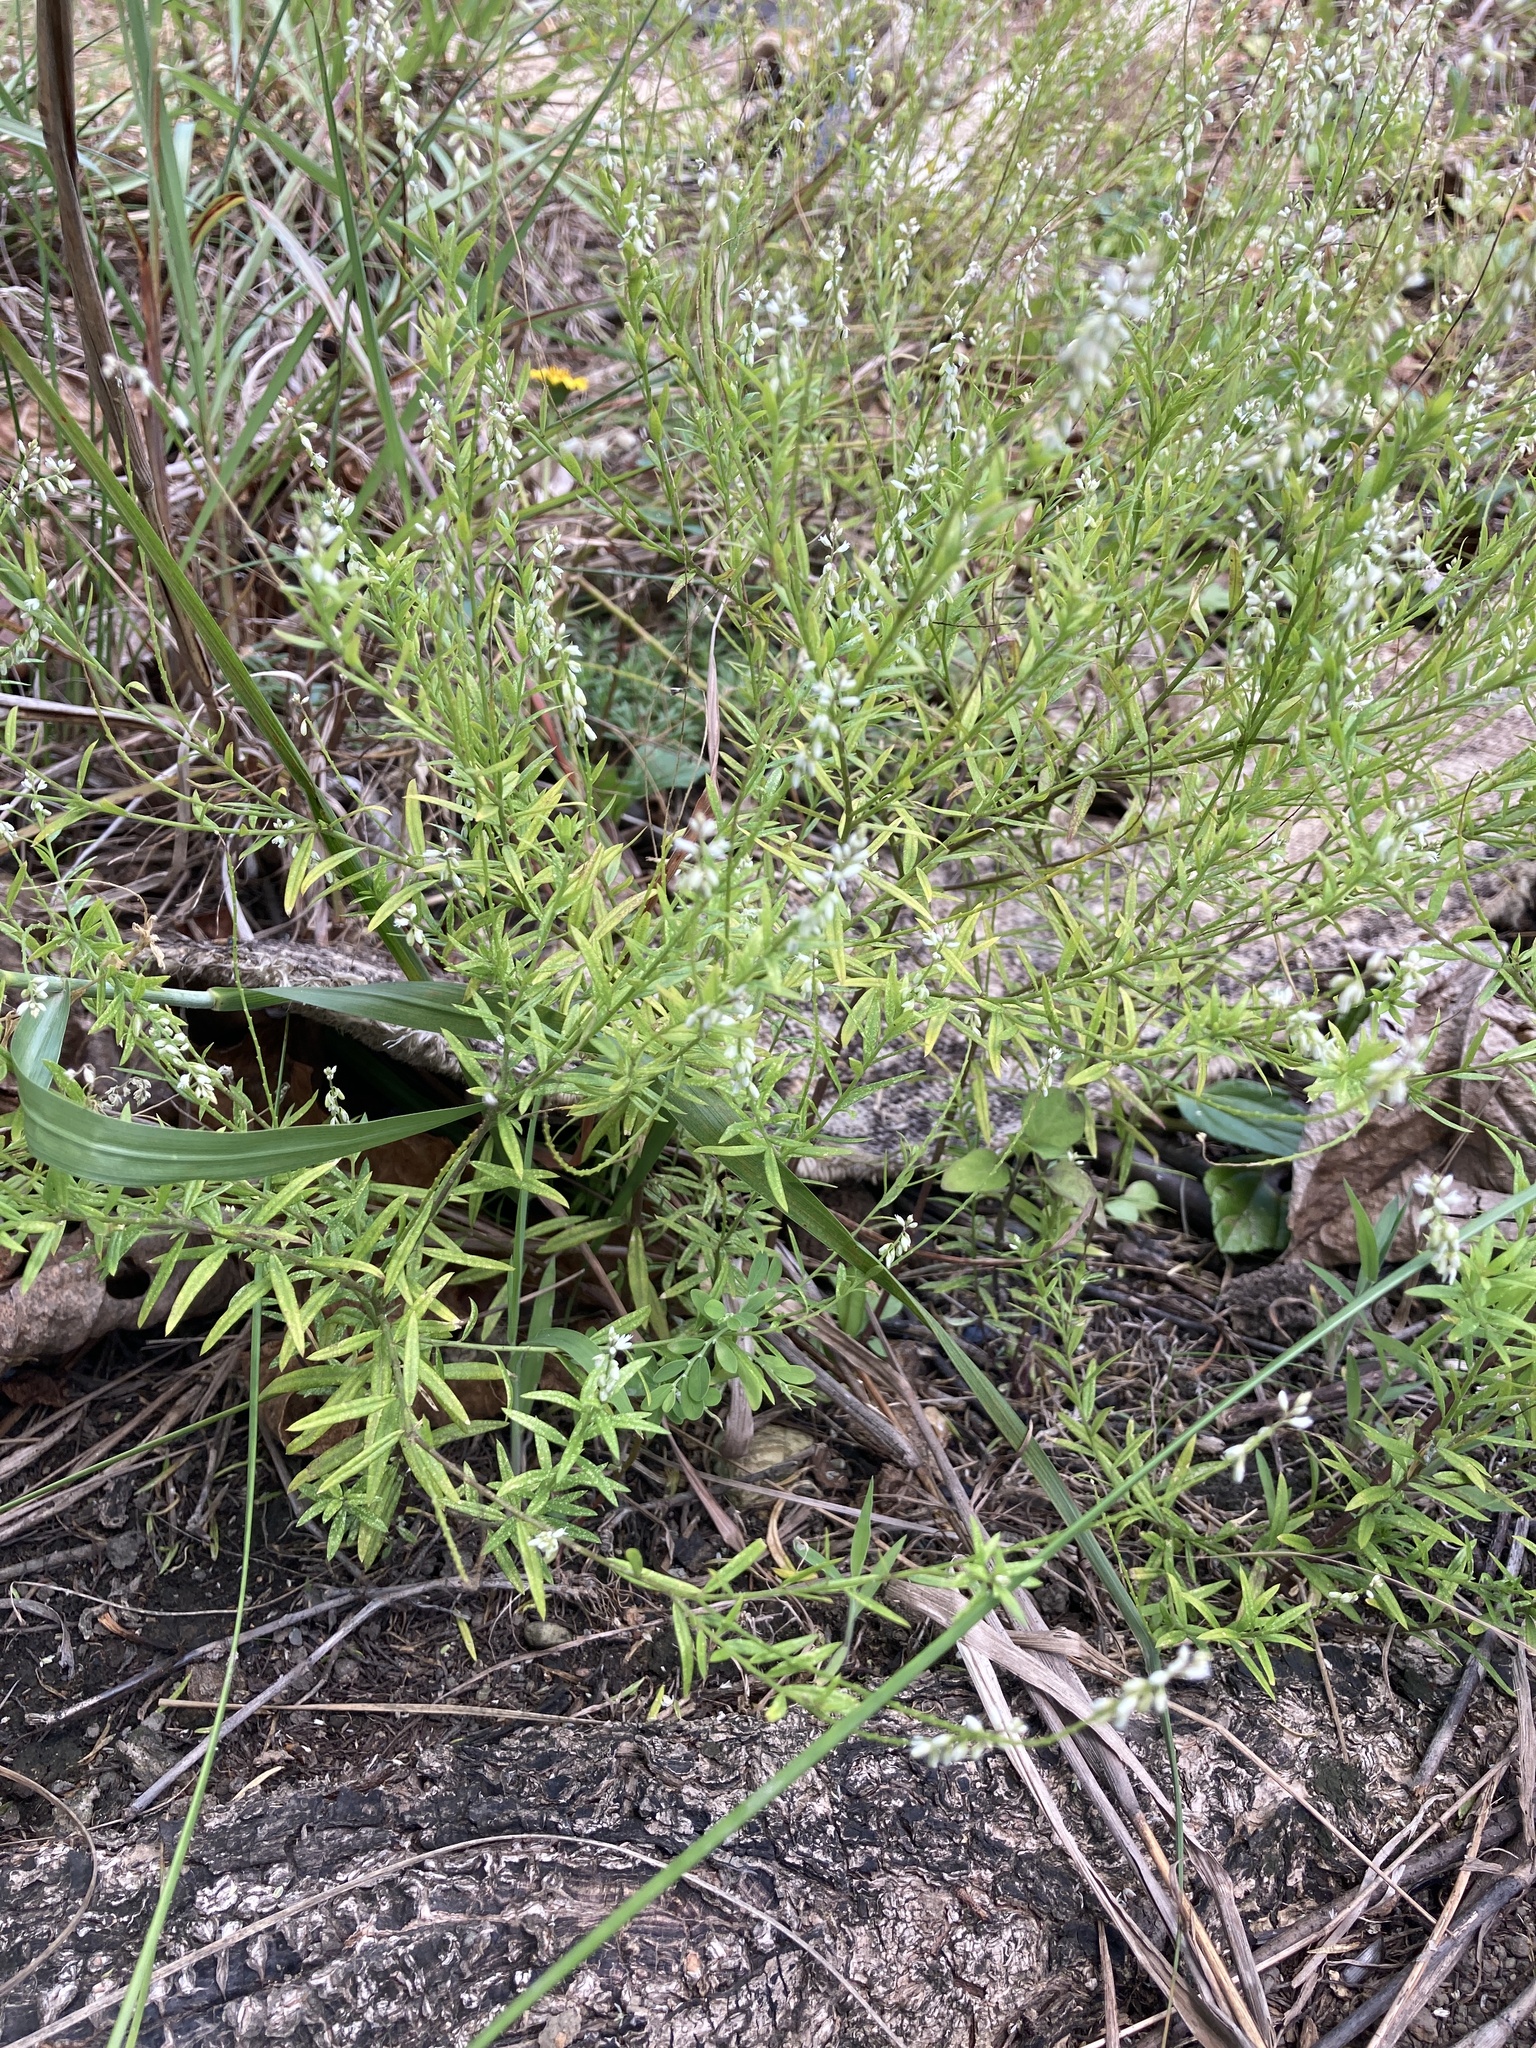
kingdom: Plantae
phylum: Tracheophyta
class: Magnoliopsida
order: Fabales
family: Polygalaceae
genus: Polygala
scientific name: Polygala paniculata
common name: Orosne
